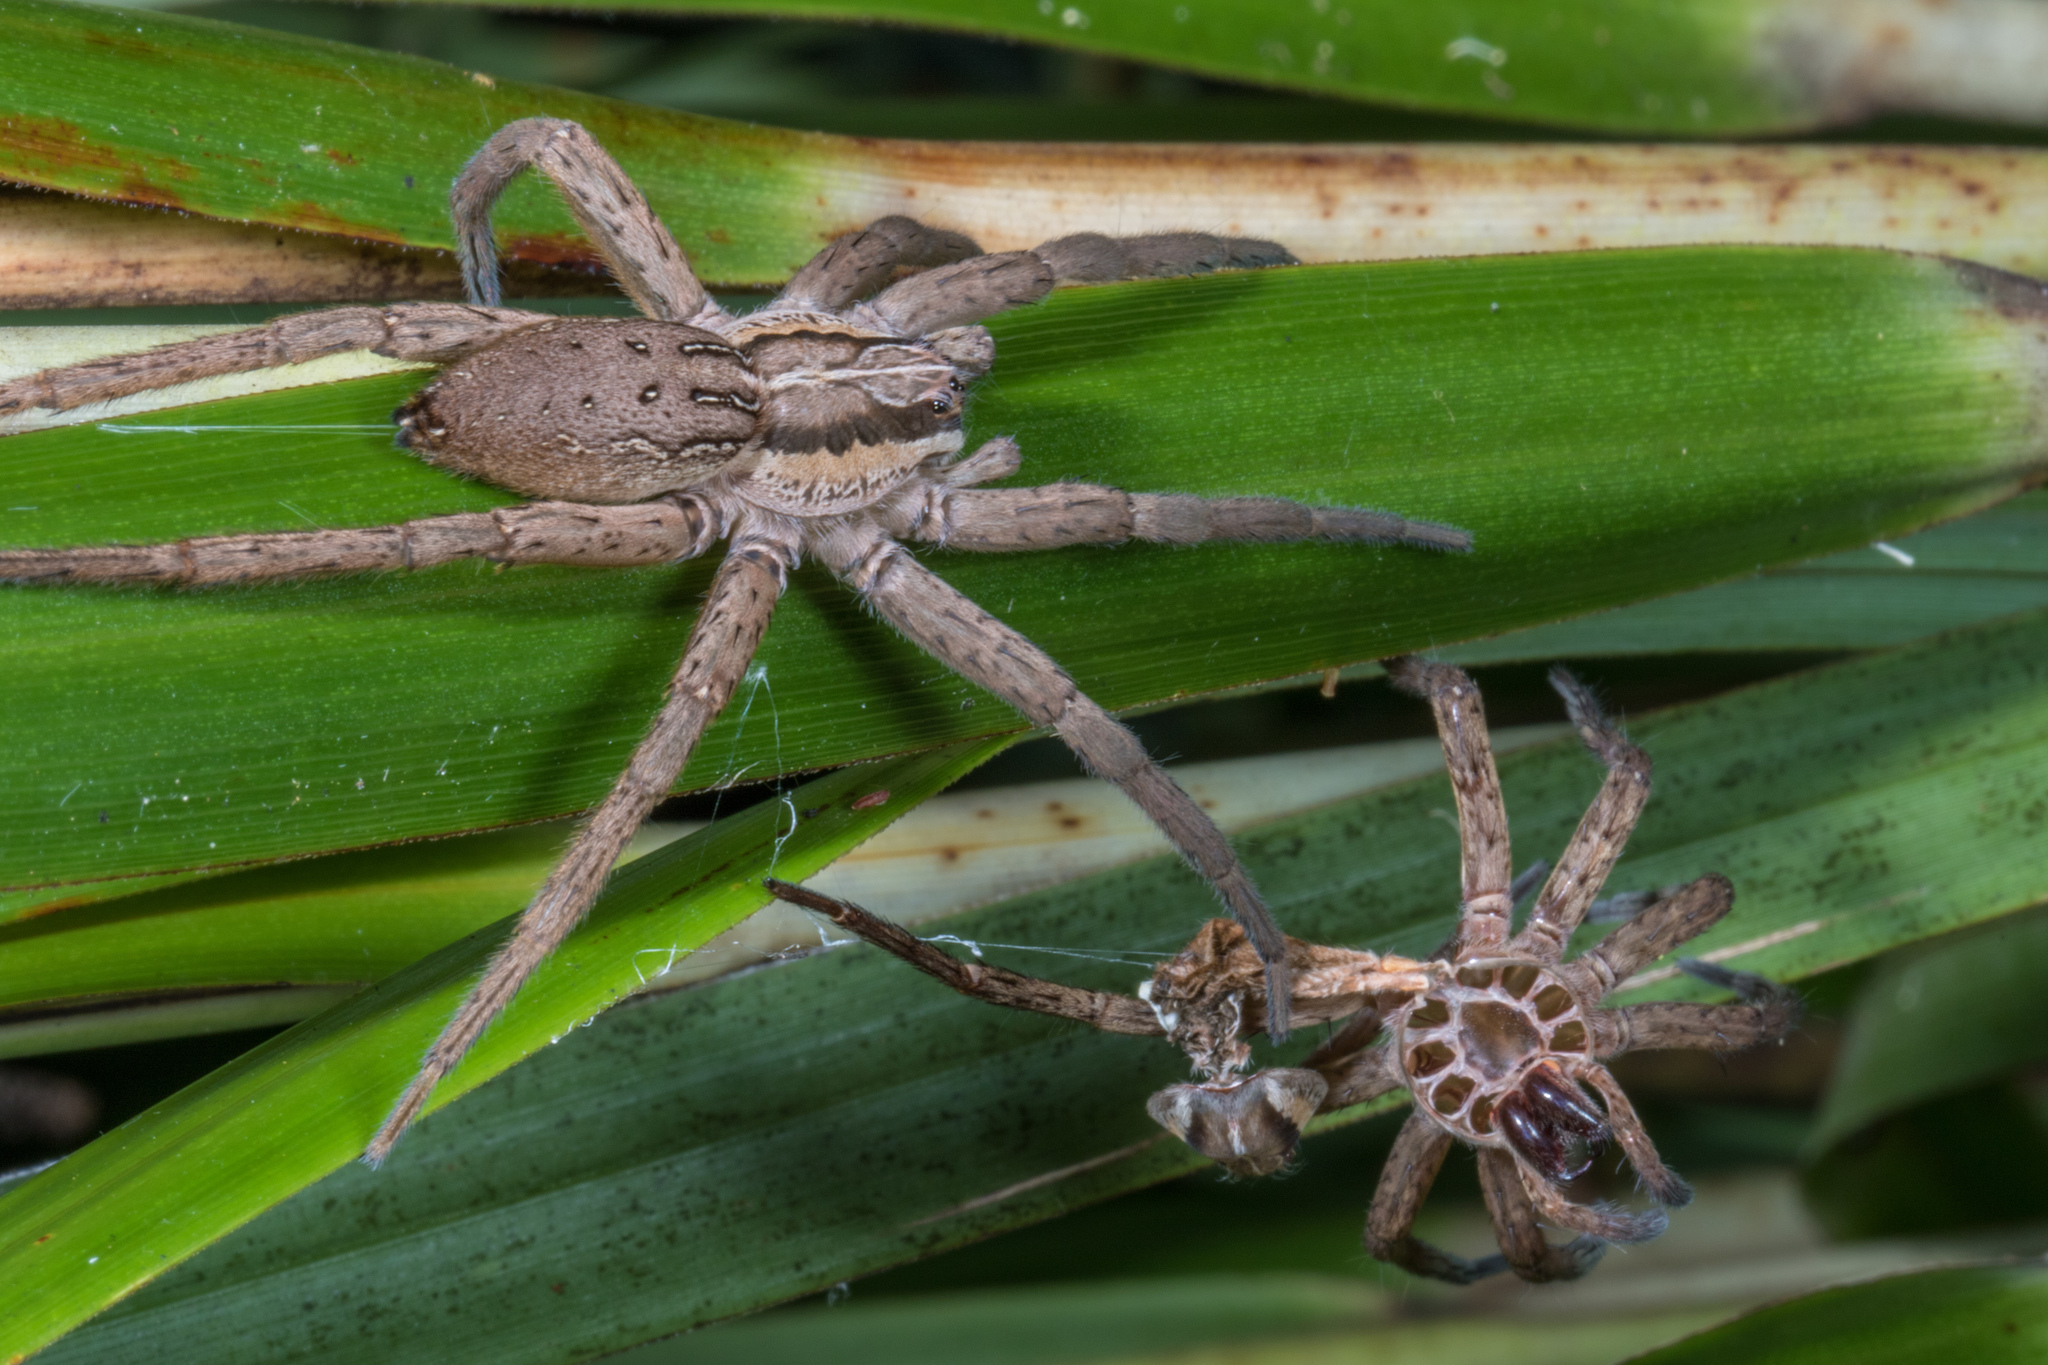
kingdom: Animalia
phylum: Arthropoda
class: Arachnida
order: Araneae
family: Pisauridae
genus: Dolomedes
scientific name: Dolomedes minor
